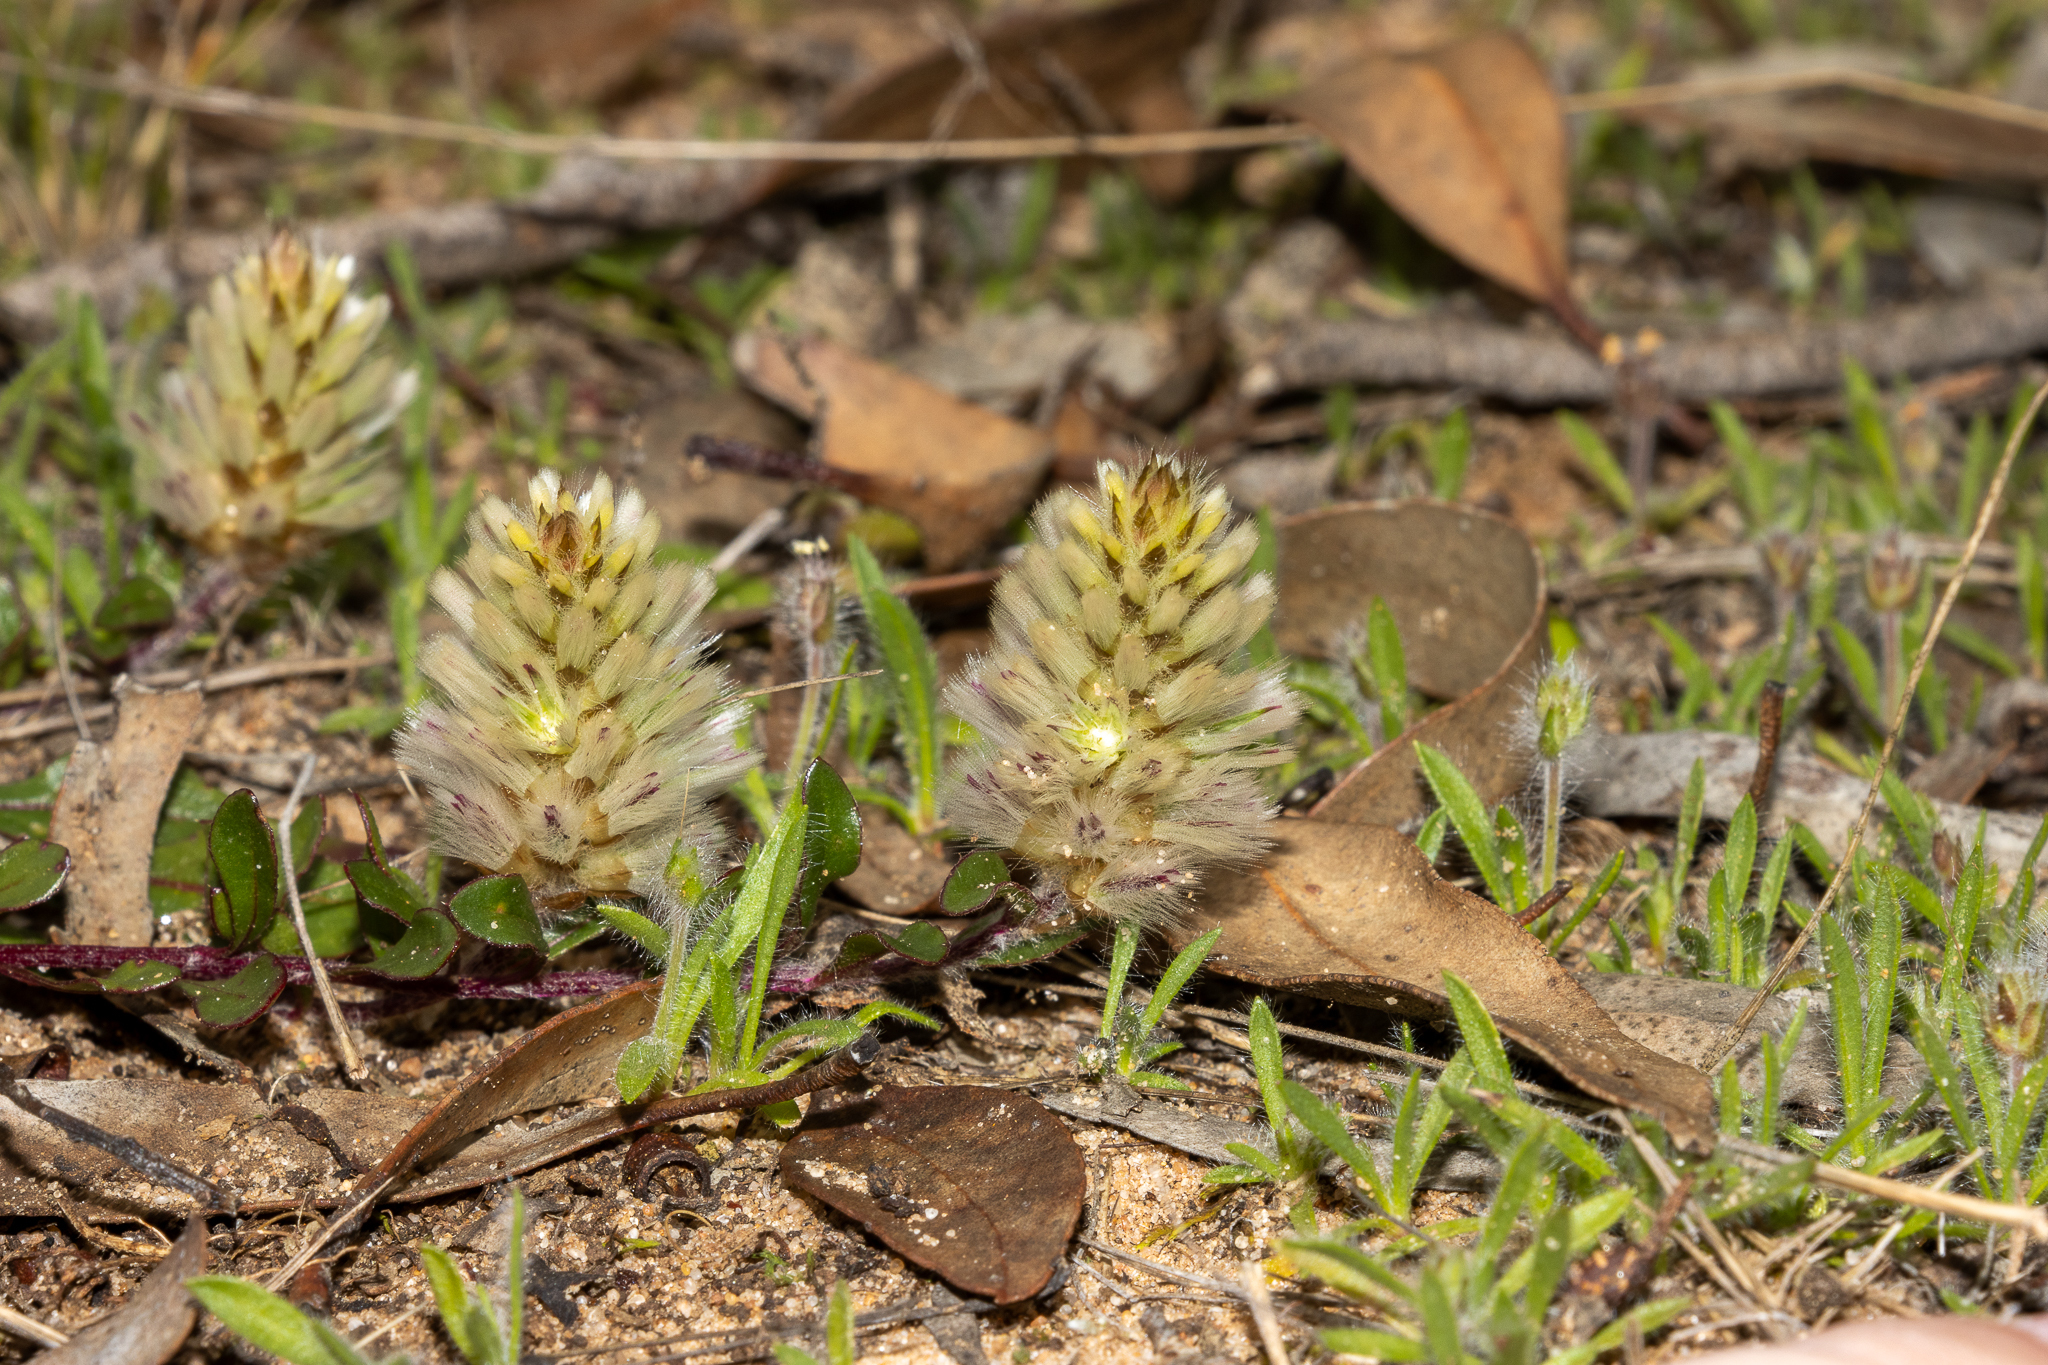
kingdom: Plantae
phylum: Tracheophyta
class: Magnoliopsida
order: Caryophyllales
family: Amaranthaceae
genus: Ptilotus
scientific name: Ptilotus spathulatus
